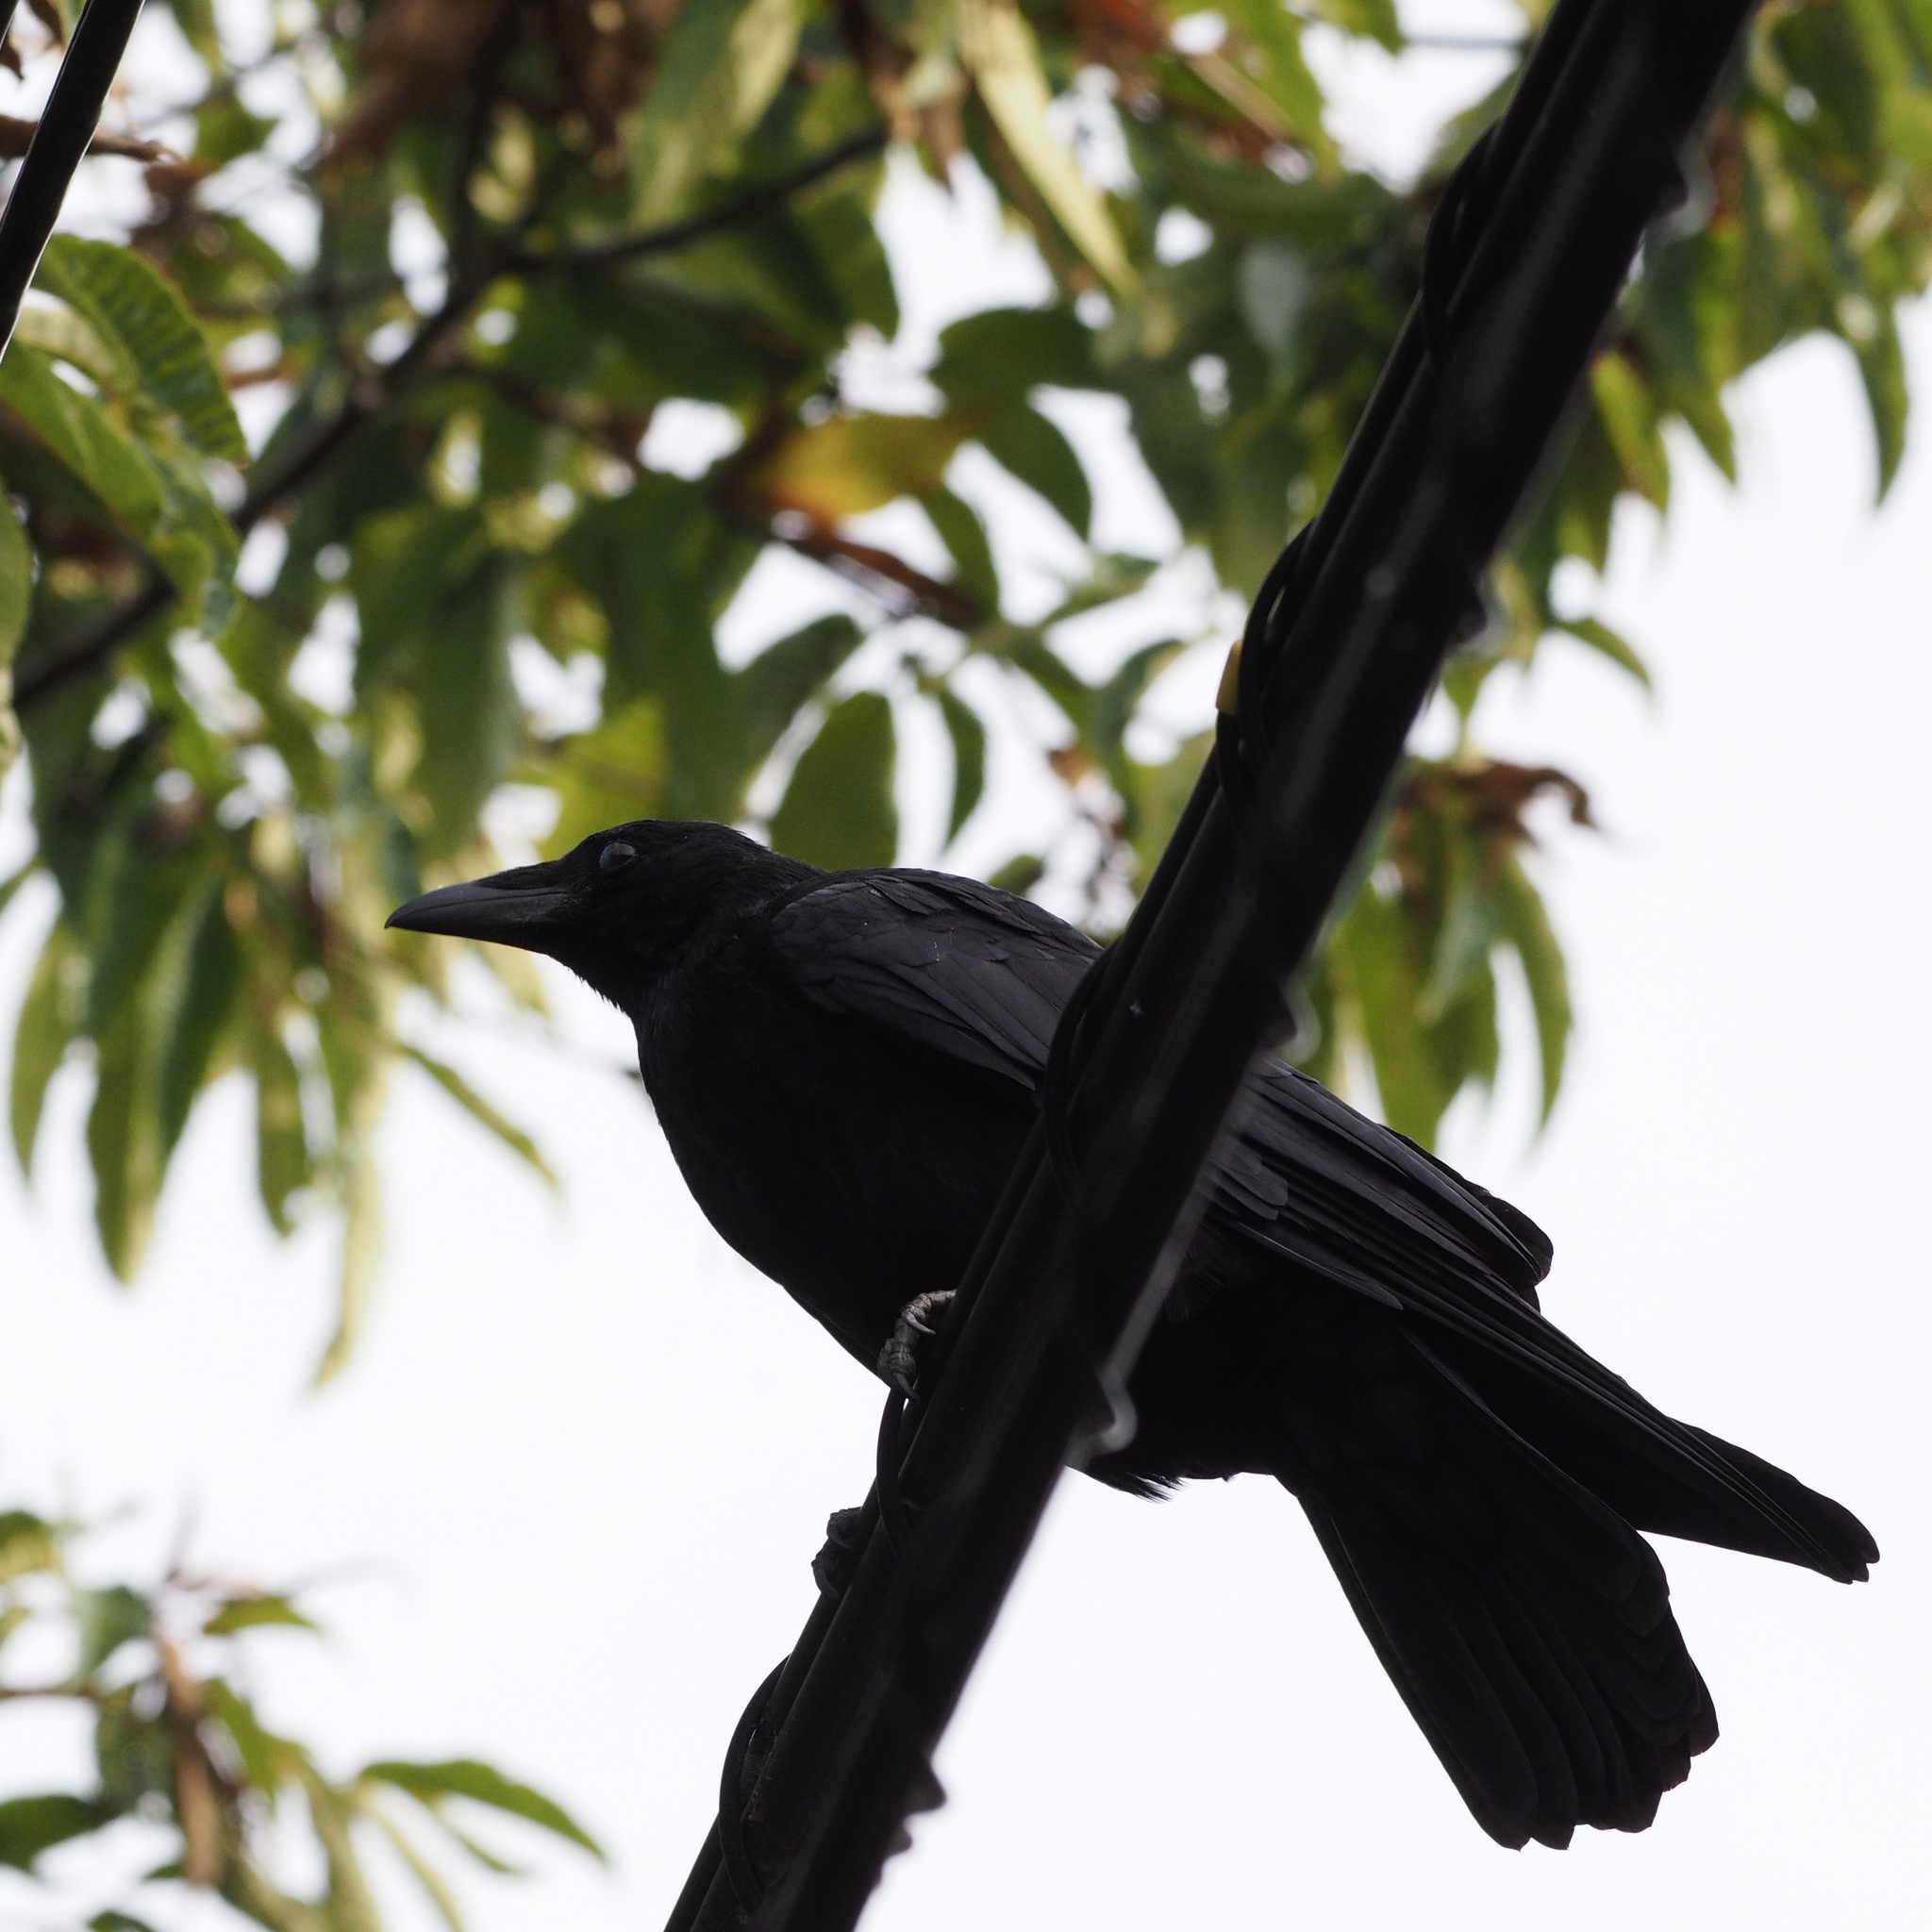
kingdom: Animalia
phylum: Chordata
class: Aves
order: Passeriformes
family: Corvidae
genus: Corvus
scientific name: Corvus corone
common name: Carrion crow
